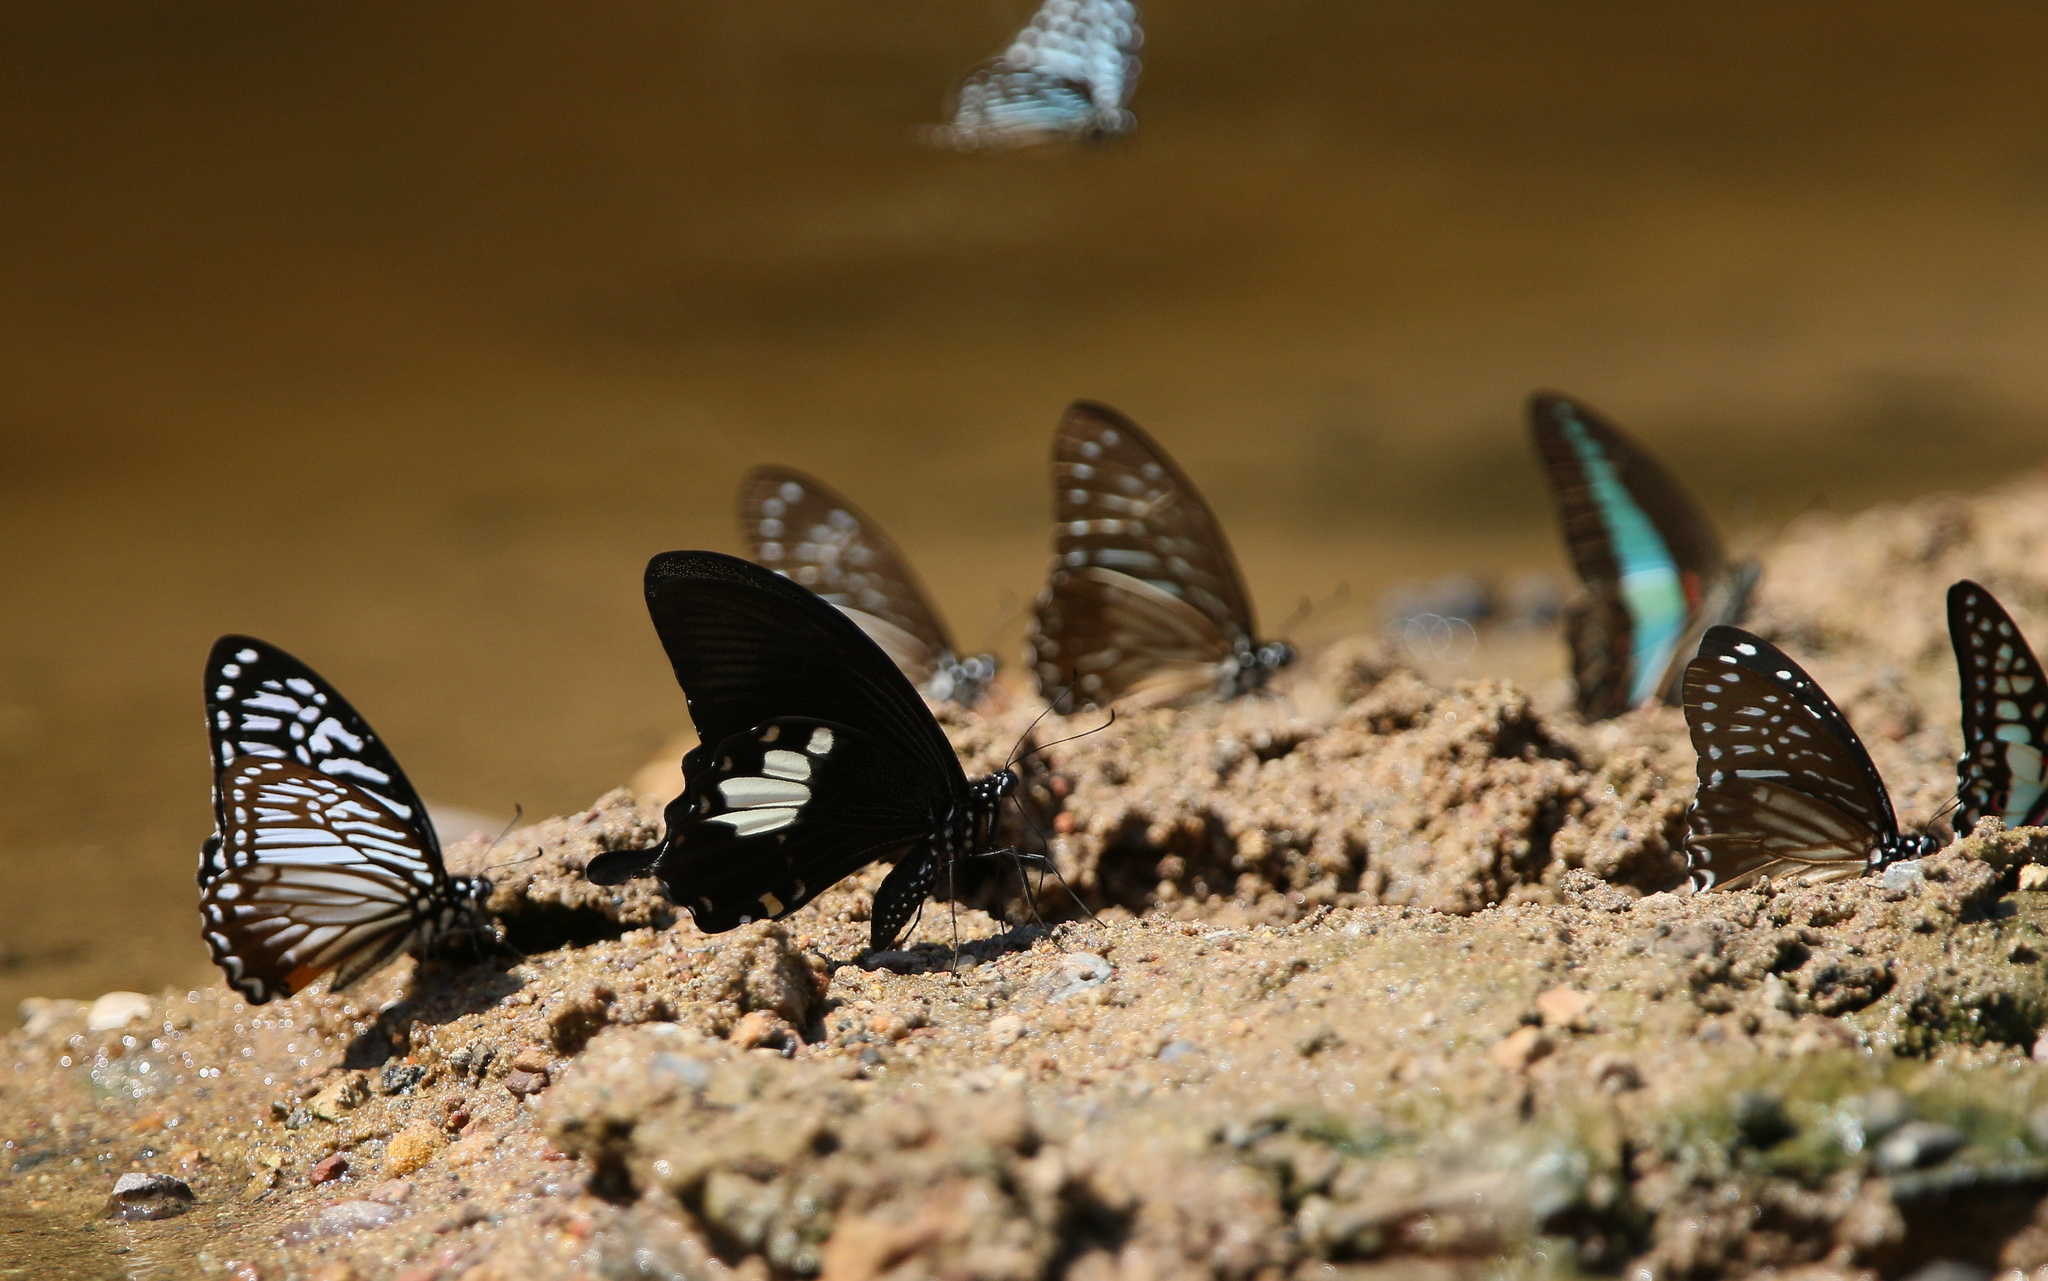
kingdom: Animalia
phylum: Arthropoda
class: Insecta
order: Lepidoptera
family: Papilionidae
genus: Papilio
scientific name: Papilio nephelus
